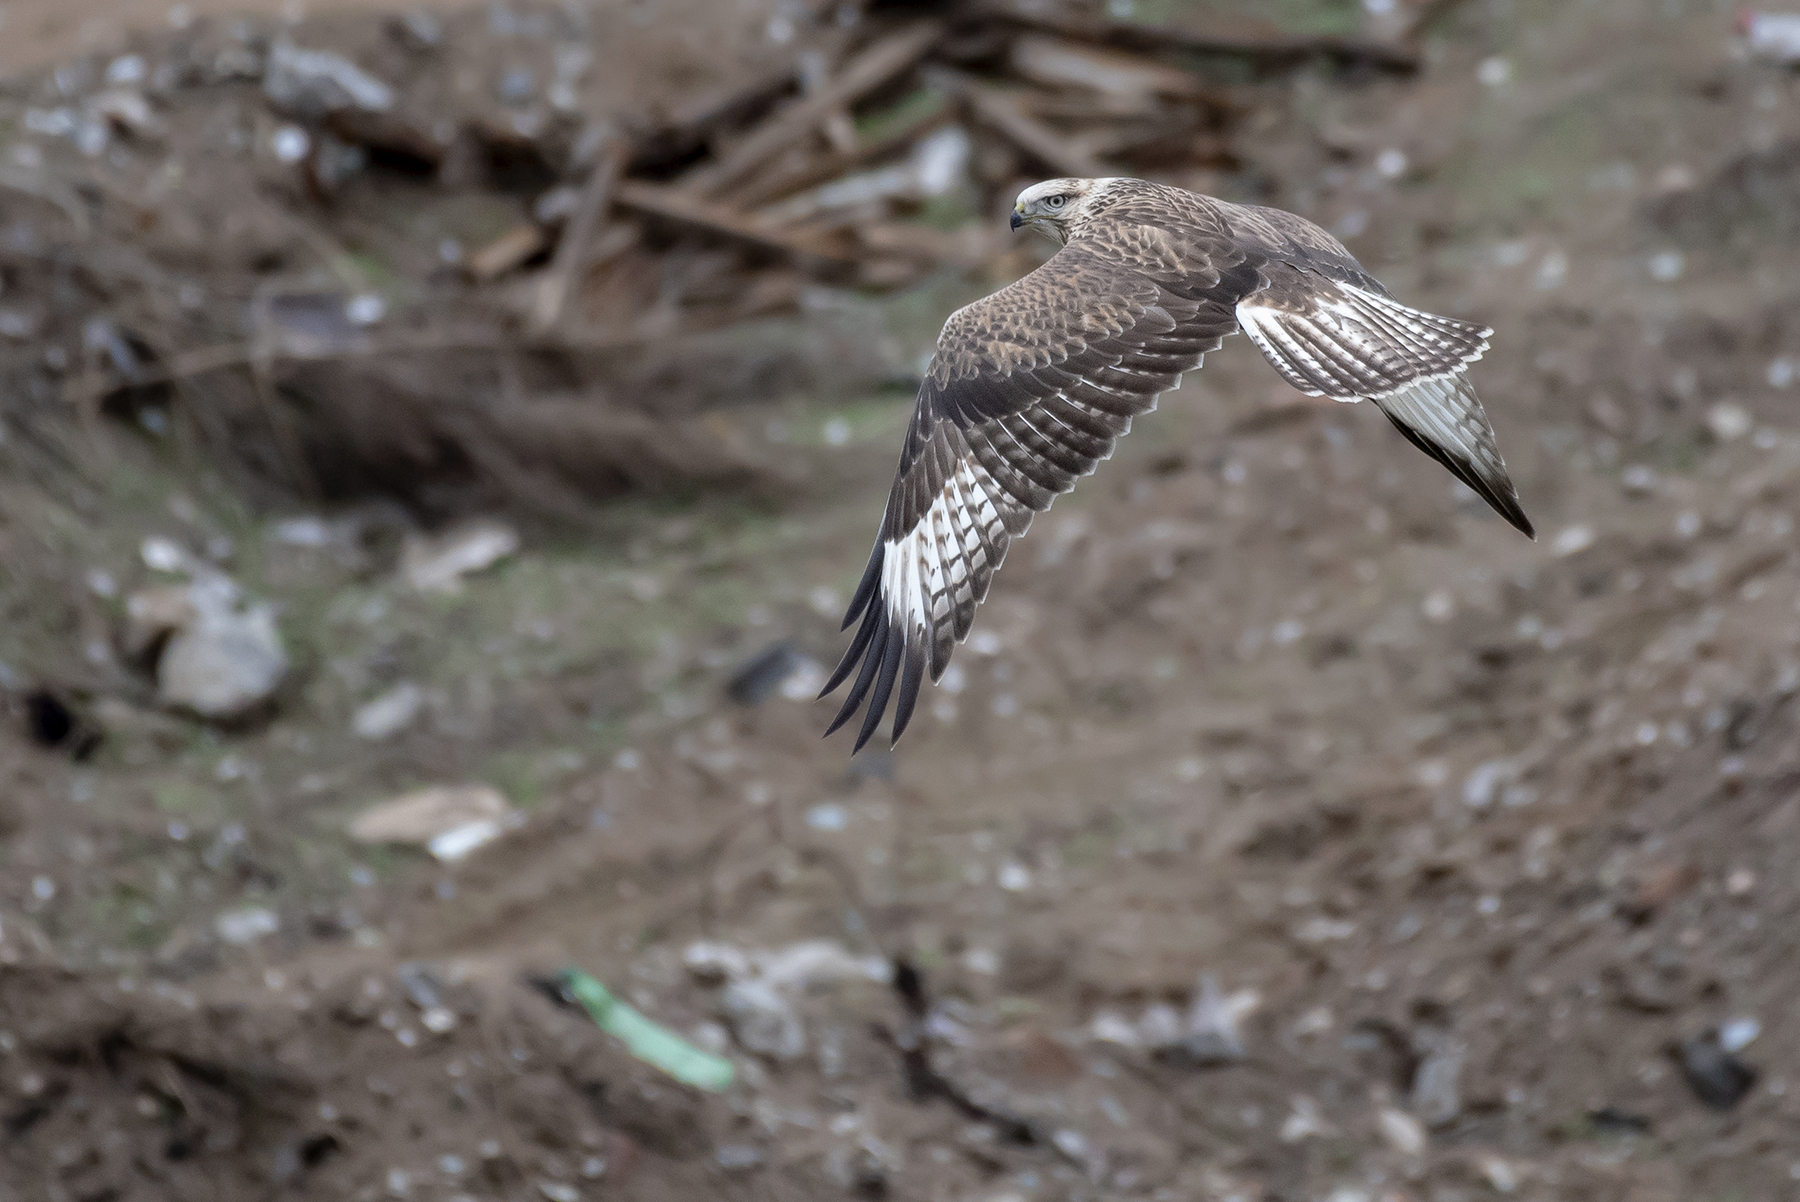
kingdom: Animalia
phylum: Chordata
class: Aves
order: Accipitriformes
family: Accipitridae
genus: Buteo
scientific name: Buteo hemilasius
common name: Upland buzzard
